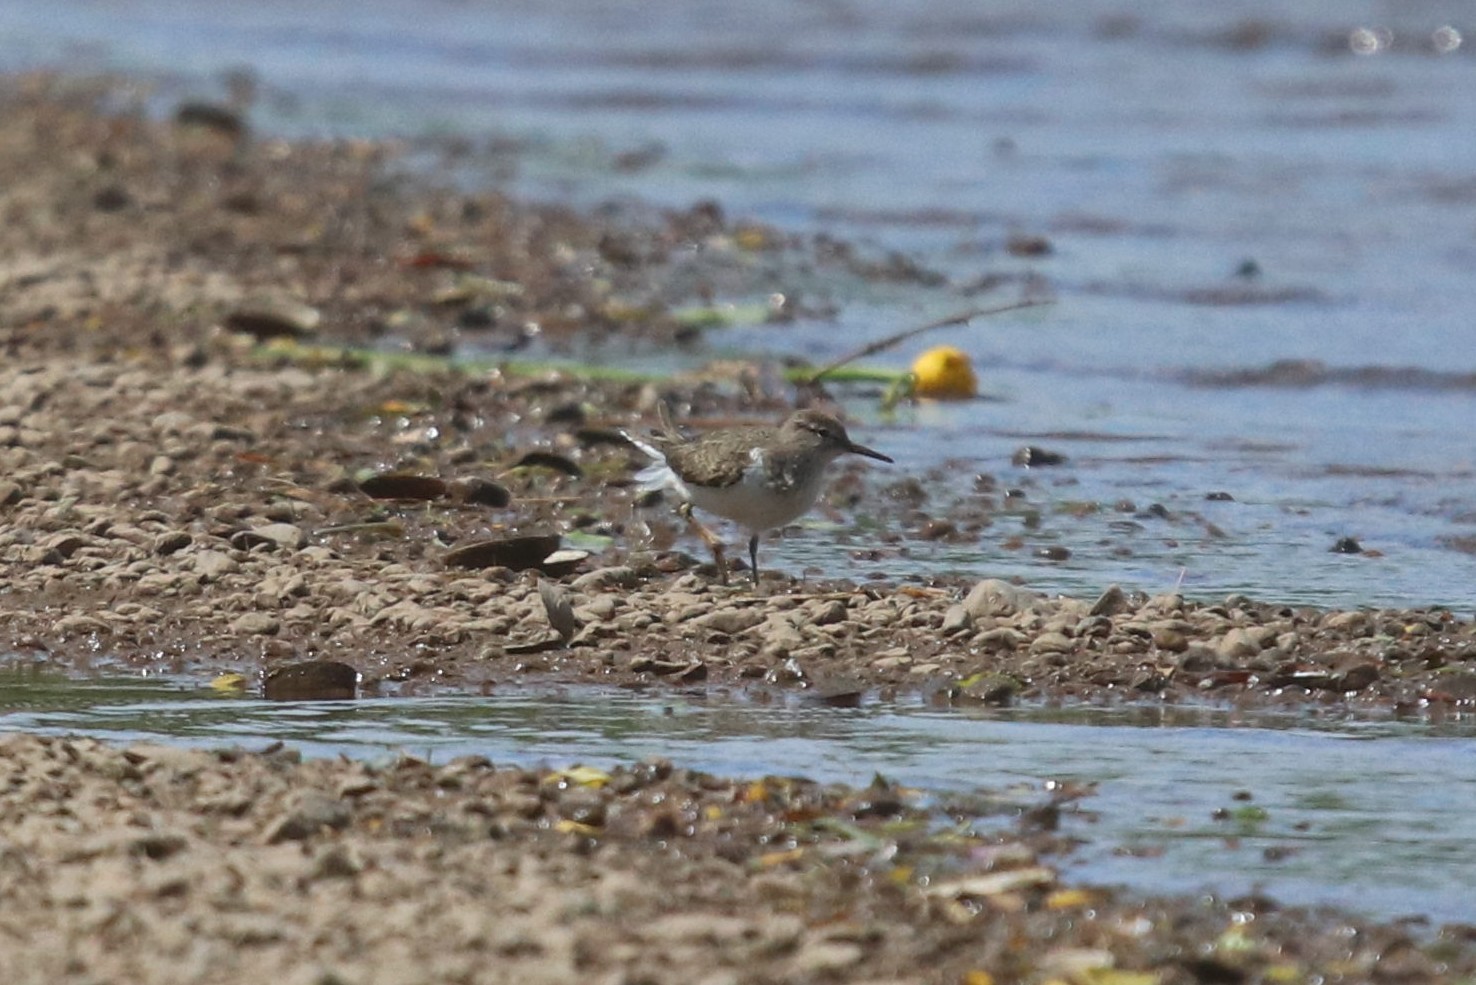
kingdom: Animalia
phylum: Chordata
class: Aves
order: Charadriiformes
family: Scolopacidae
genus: Actitis
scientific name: Actitis hypoleucos
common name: Common sandpiper
